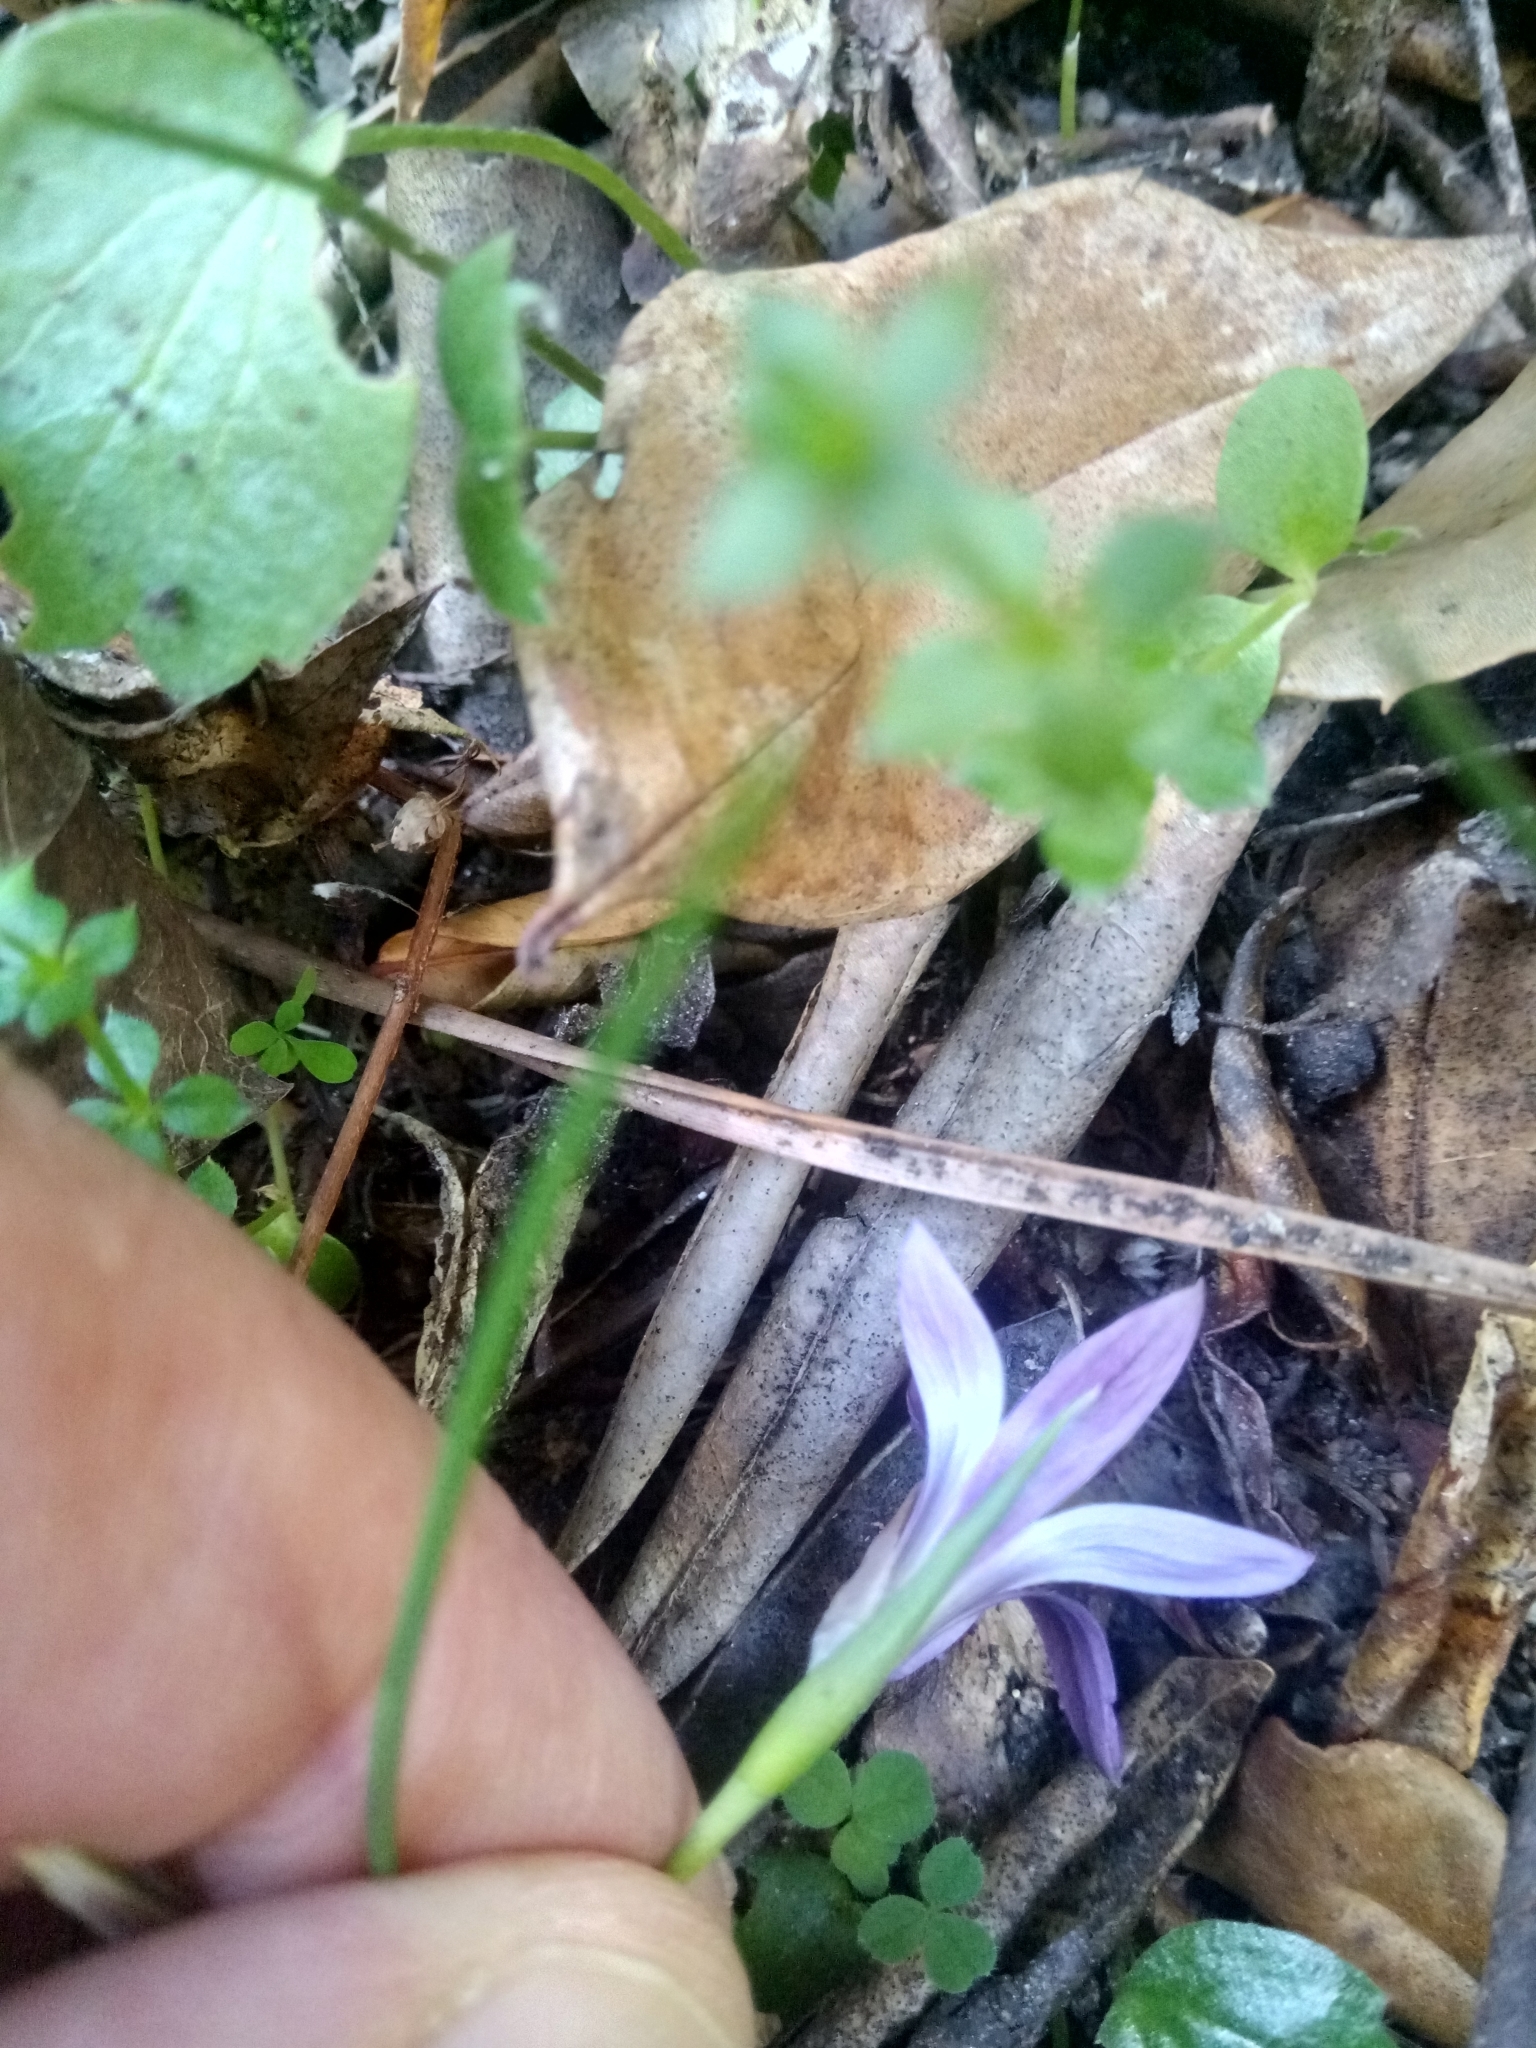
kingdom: Plantae
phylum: Tracheophyta
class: Liliopsida
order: Asparagales
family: Iridaceae
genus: Romulea
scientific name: Romulea ligustica
